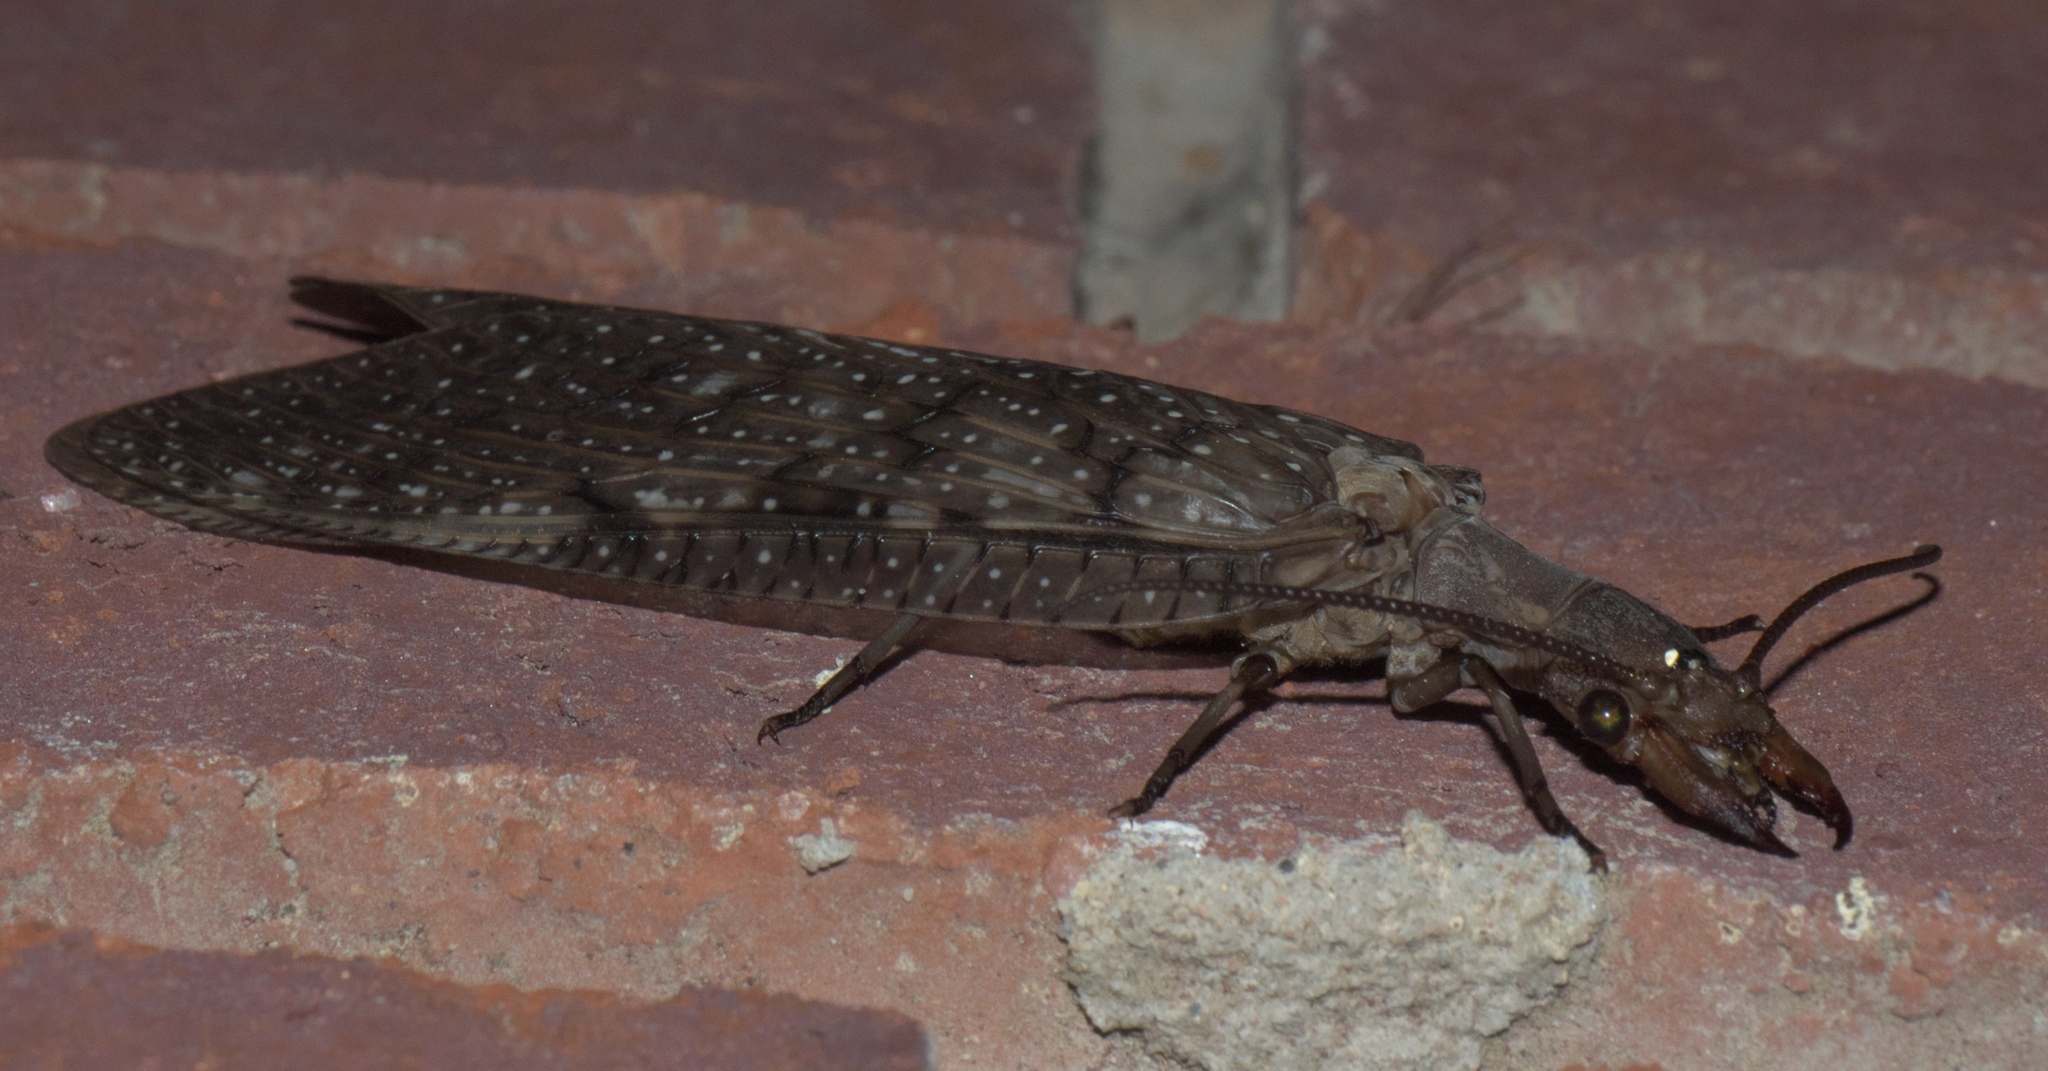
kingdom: Animalia
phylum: Arthropoda
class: Insecta
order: Megaloptera
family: Corydalidae
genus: Corydalus
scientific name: Corydalus cornutus
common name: Dobsonfly
